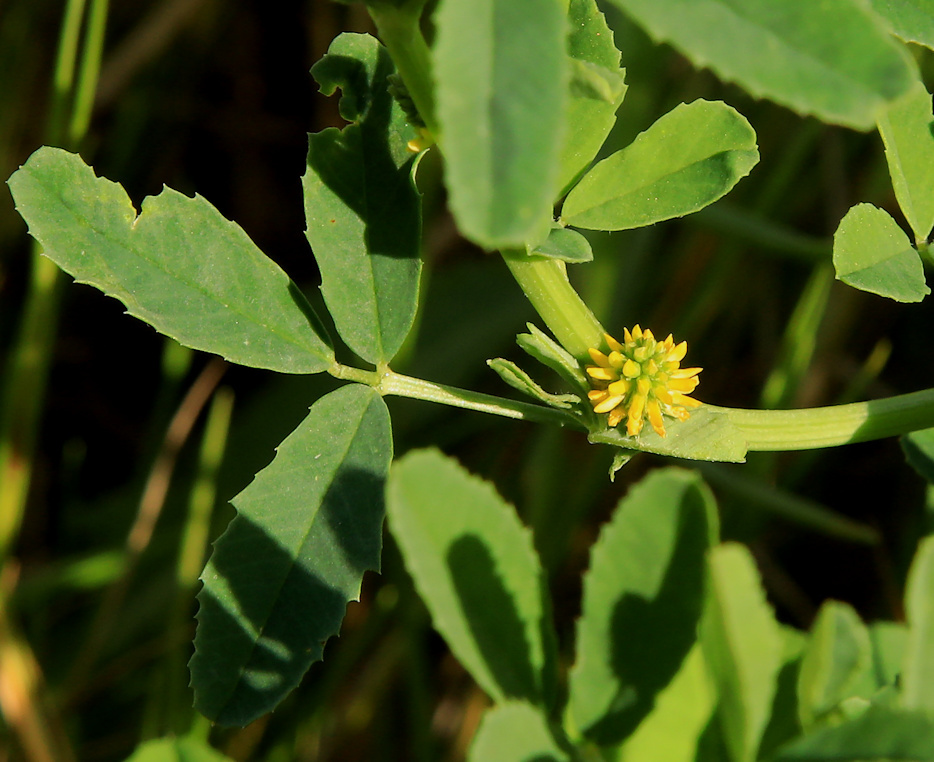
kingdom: Plantae
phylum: Tracheophyta
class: Magnoliopsida
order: Fabales
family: Fabaceae
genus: Melilotus
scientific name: Melilotus indicus
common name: Small melilot
